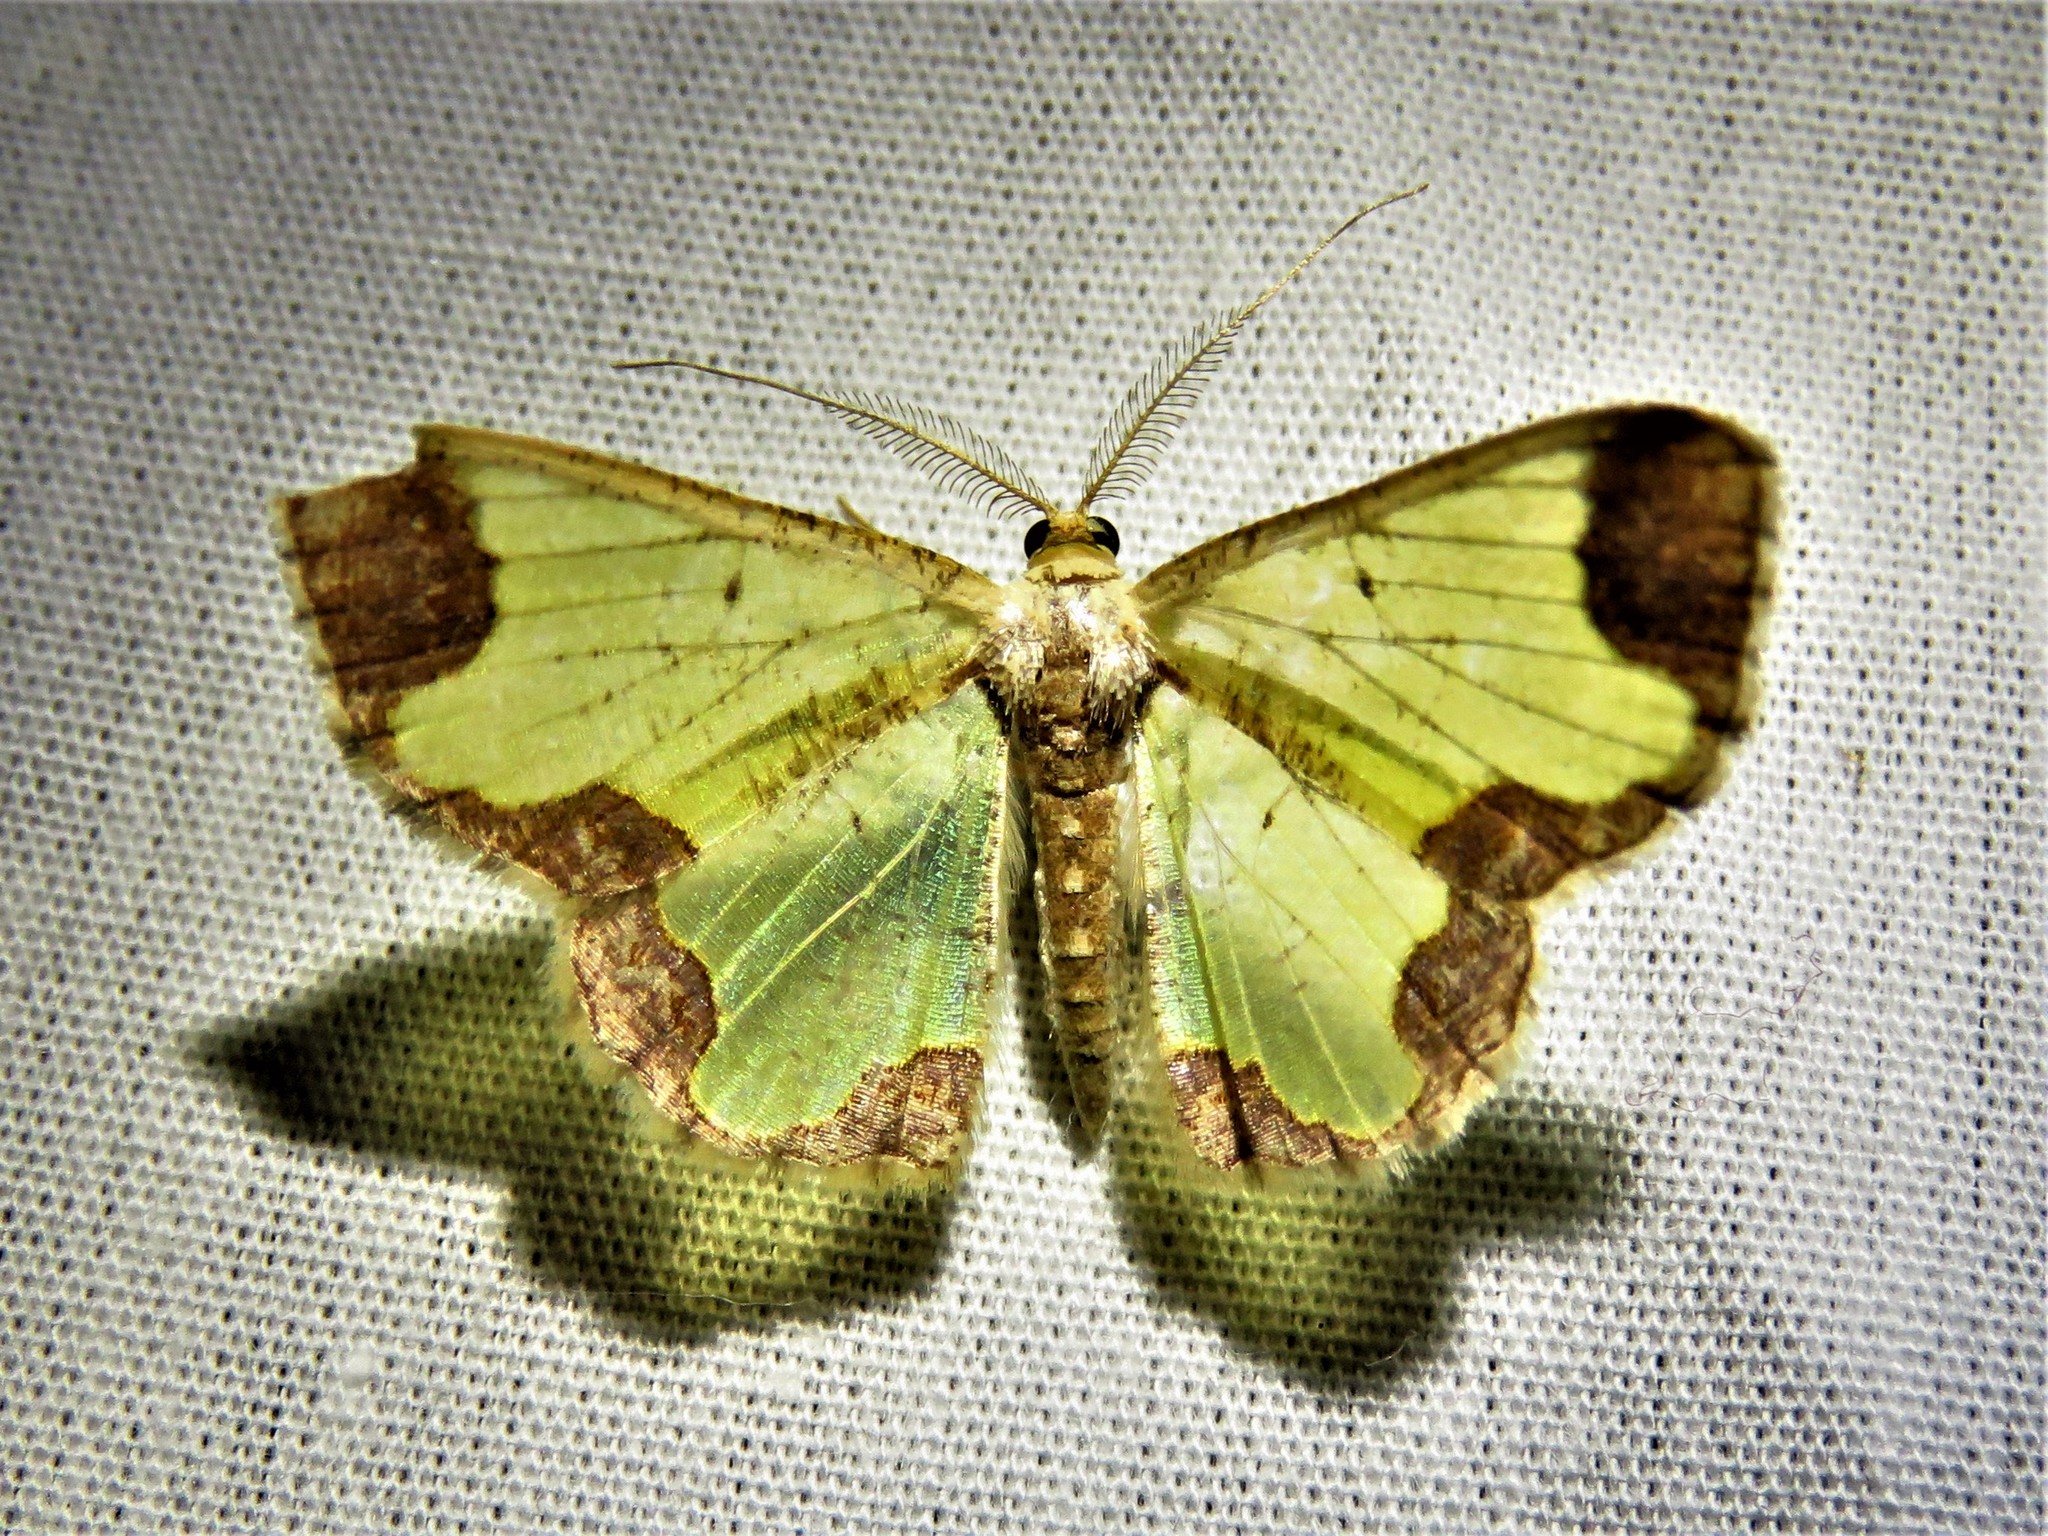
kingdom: Animalia
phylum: Arthropoda
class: Insecta
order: Lepidoptera
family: Geometridae
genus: Zamarada
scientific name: Zamarada plana
